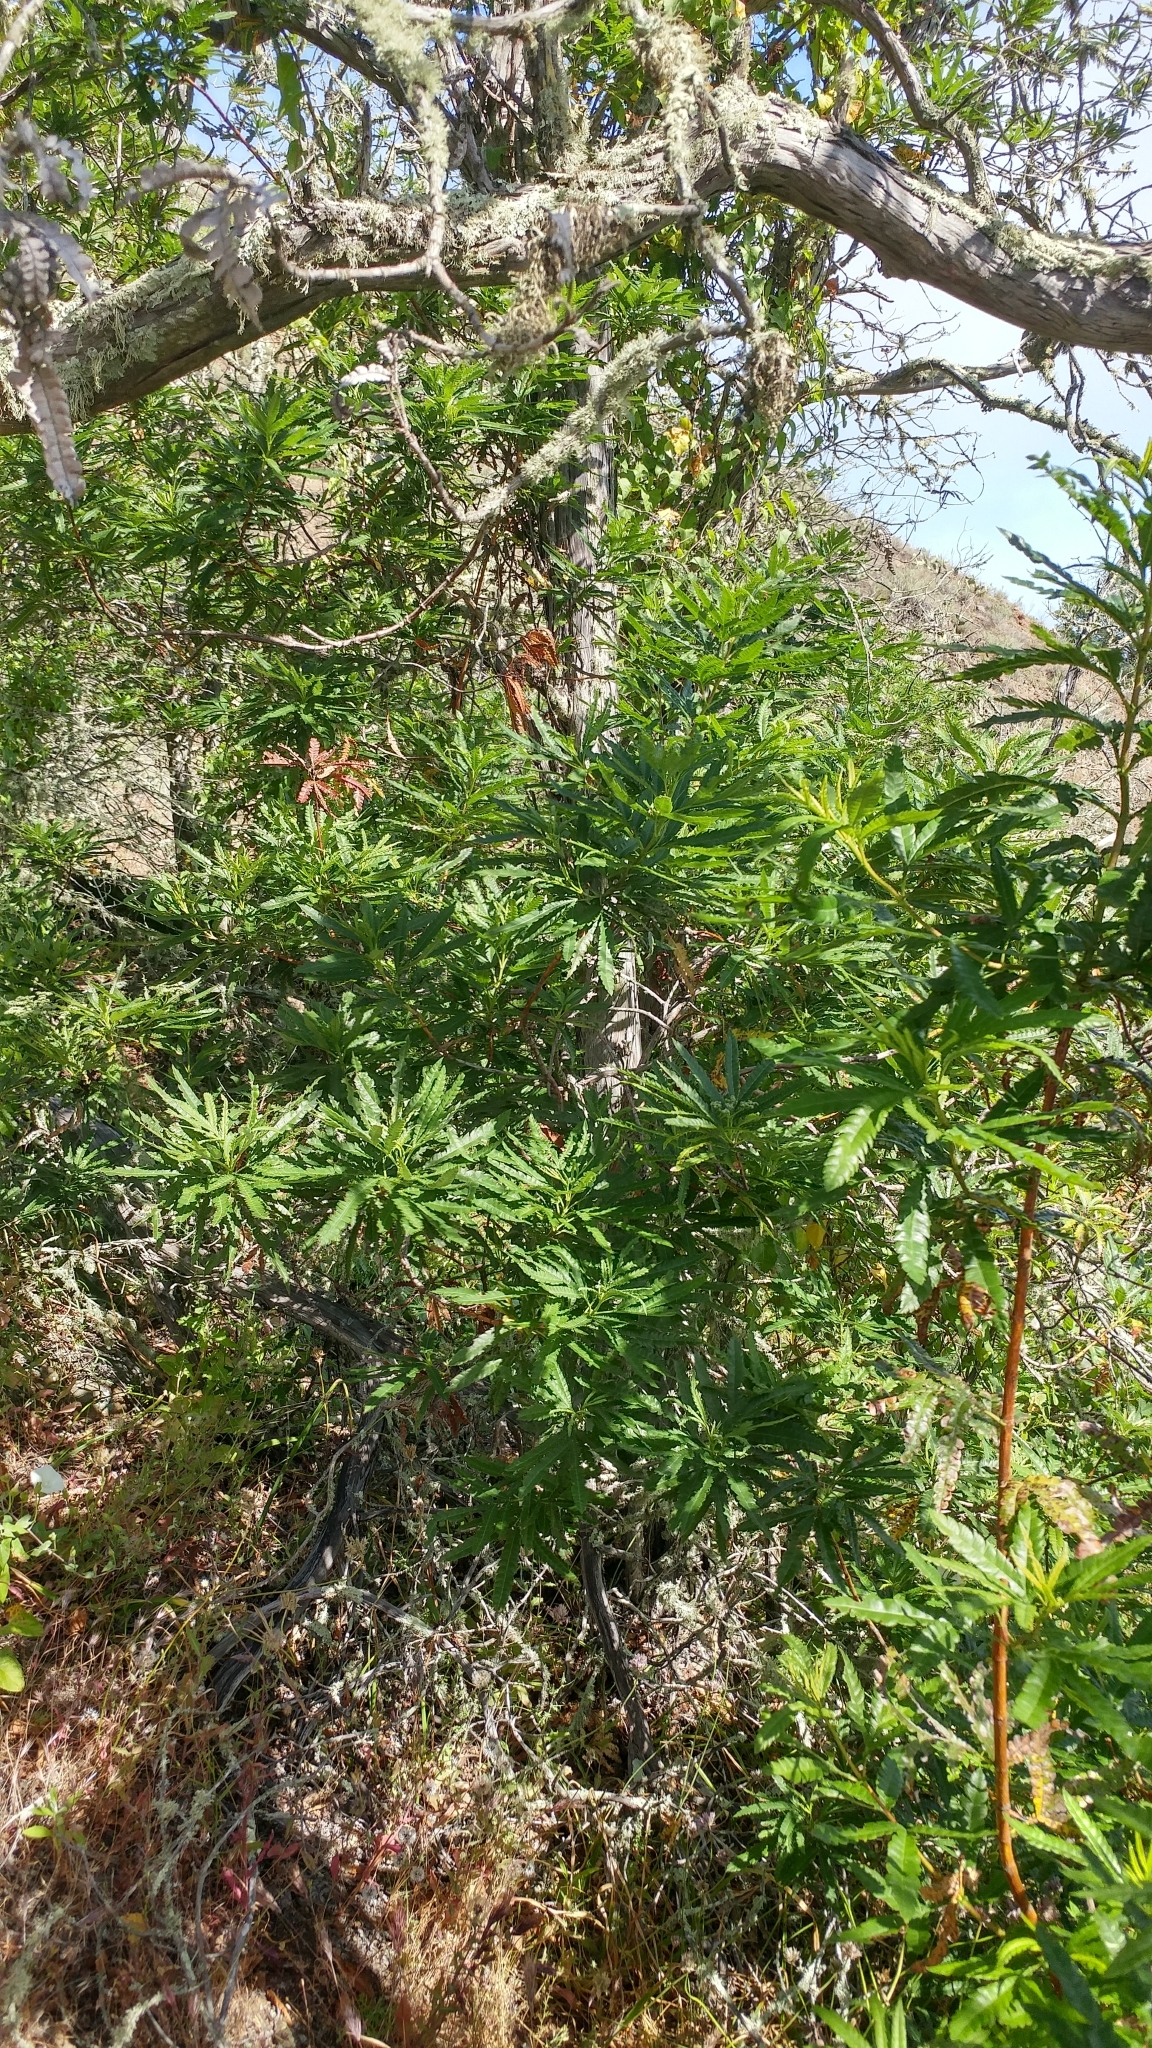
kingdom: Plantae
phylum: Tracheophyta
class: Magnoliopsida
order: Rosales
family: Rosaceae
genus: Lyonothamnus
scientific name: Lyonothamnus floribundus
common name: Catalina ironwood
